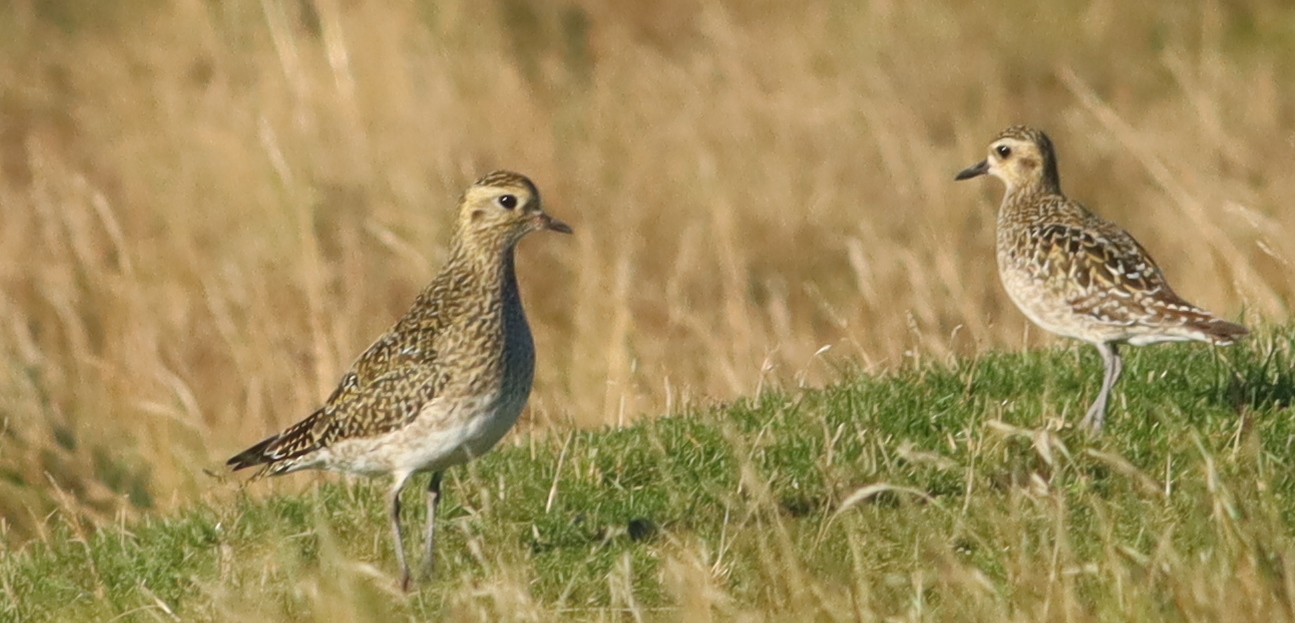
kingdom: Animalia
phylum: Chordata
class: Aves
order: Charadriiformes
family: Charadriidae
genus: Pluvialis
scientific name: Pluvialis fulva
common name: Pacific golden plover
